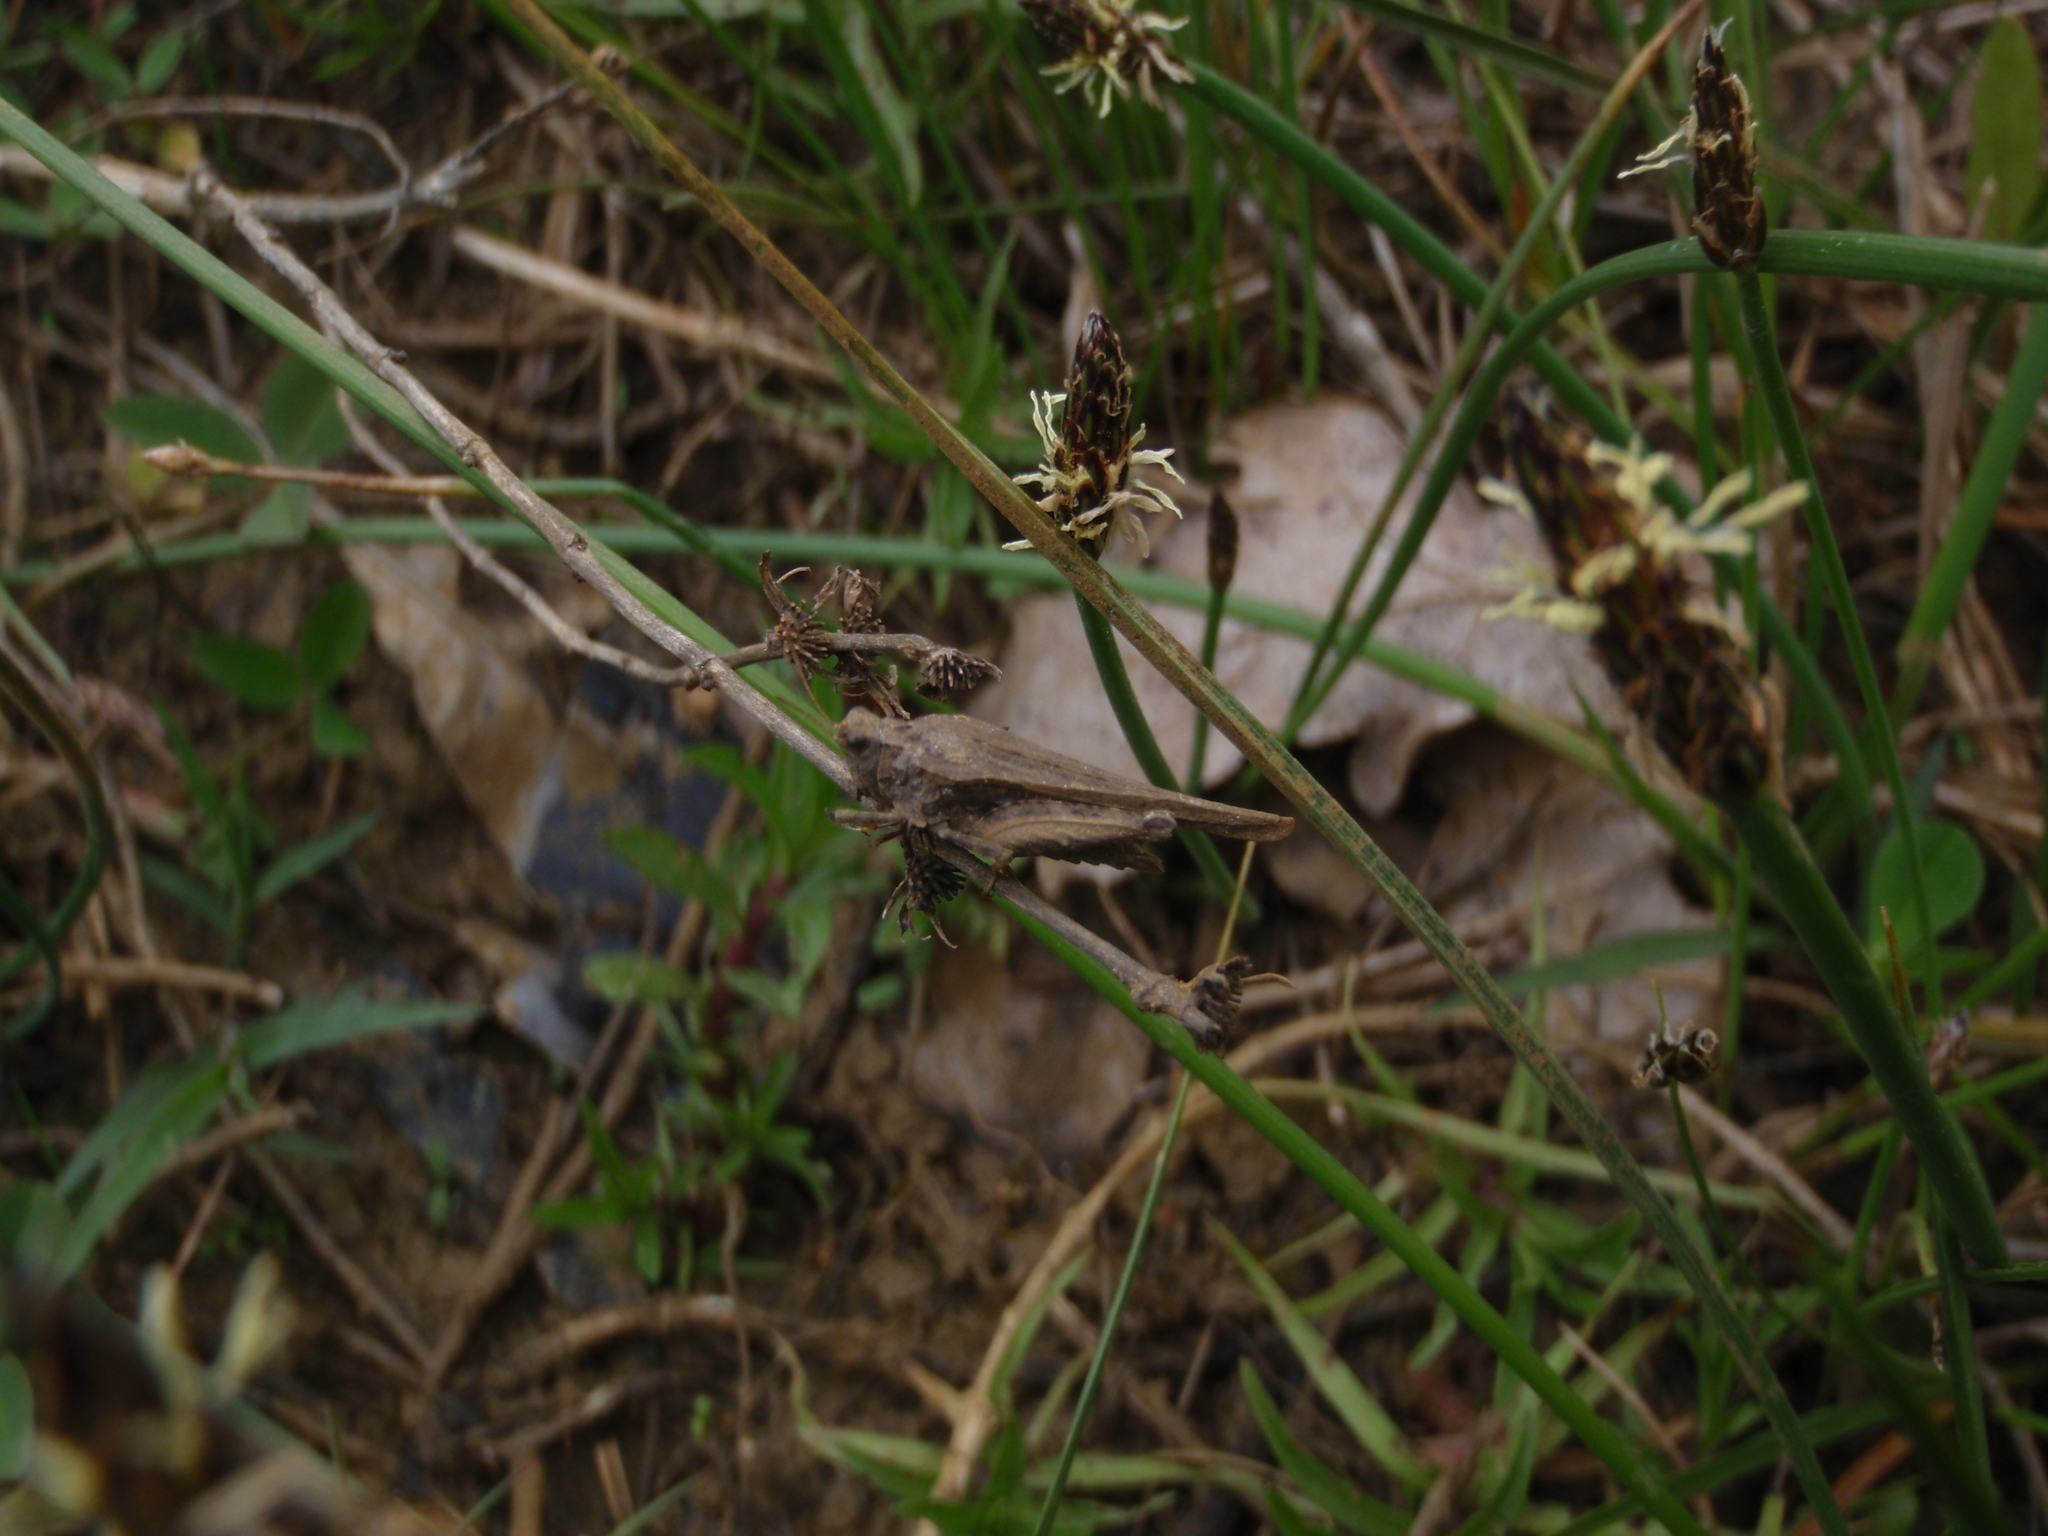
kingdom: Animalia
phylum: Arthropoda
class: Insecta
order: Orthoptera
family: Tetrigidae
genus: Tetrix
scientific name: Tetrix subulata
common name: Slender ground-hopper
